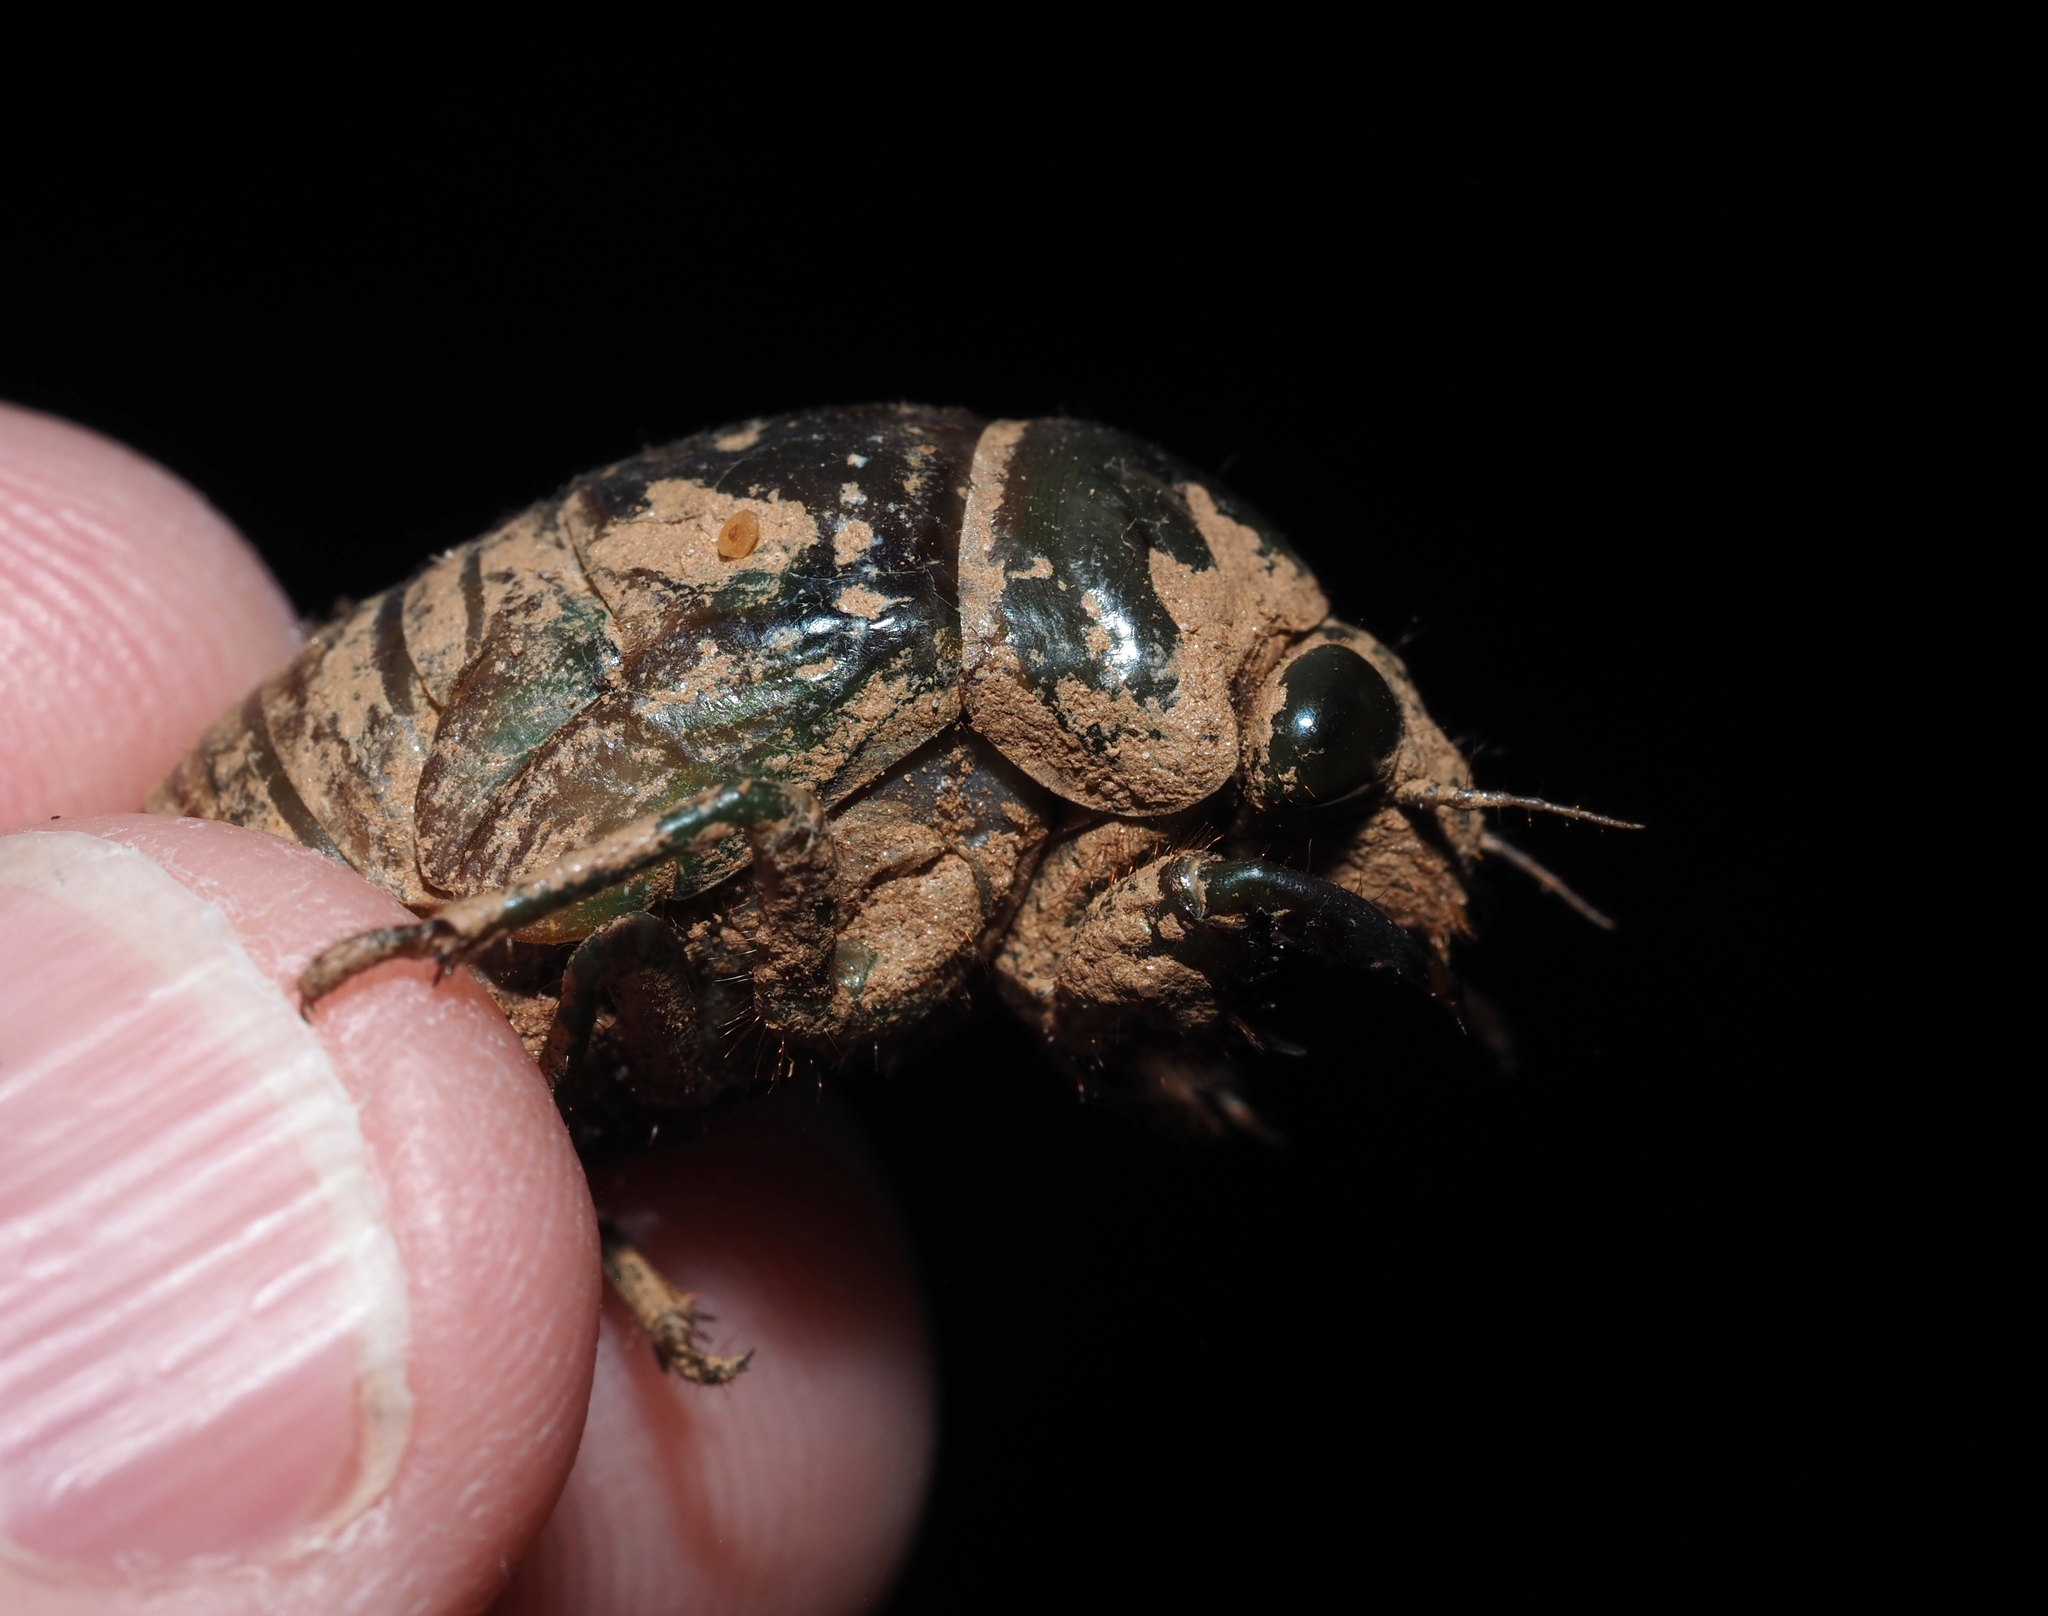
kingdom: Animalia
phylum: Arthropoda
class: Insecta
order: Hymenoptera
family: Cynipidae
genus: Neuroterus
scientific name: Neuroterus
